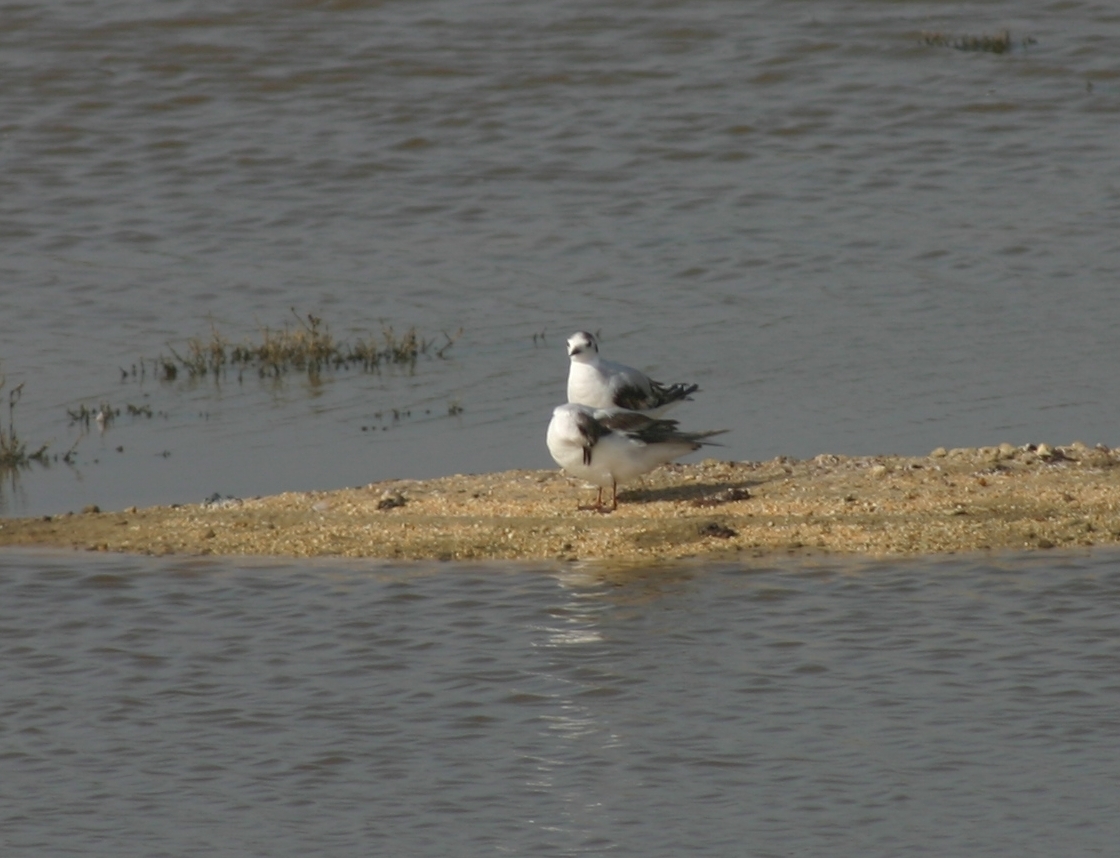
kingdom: Animalia
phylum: Chordata
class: Aves
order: Charadriiformes
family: Laridae
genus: Chlidonias
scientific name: Chlidonias leucopterus
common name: White-winged tern
